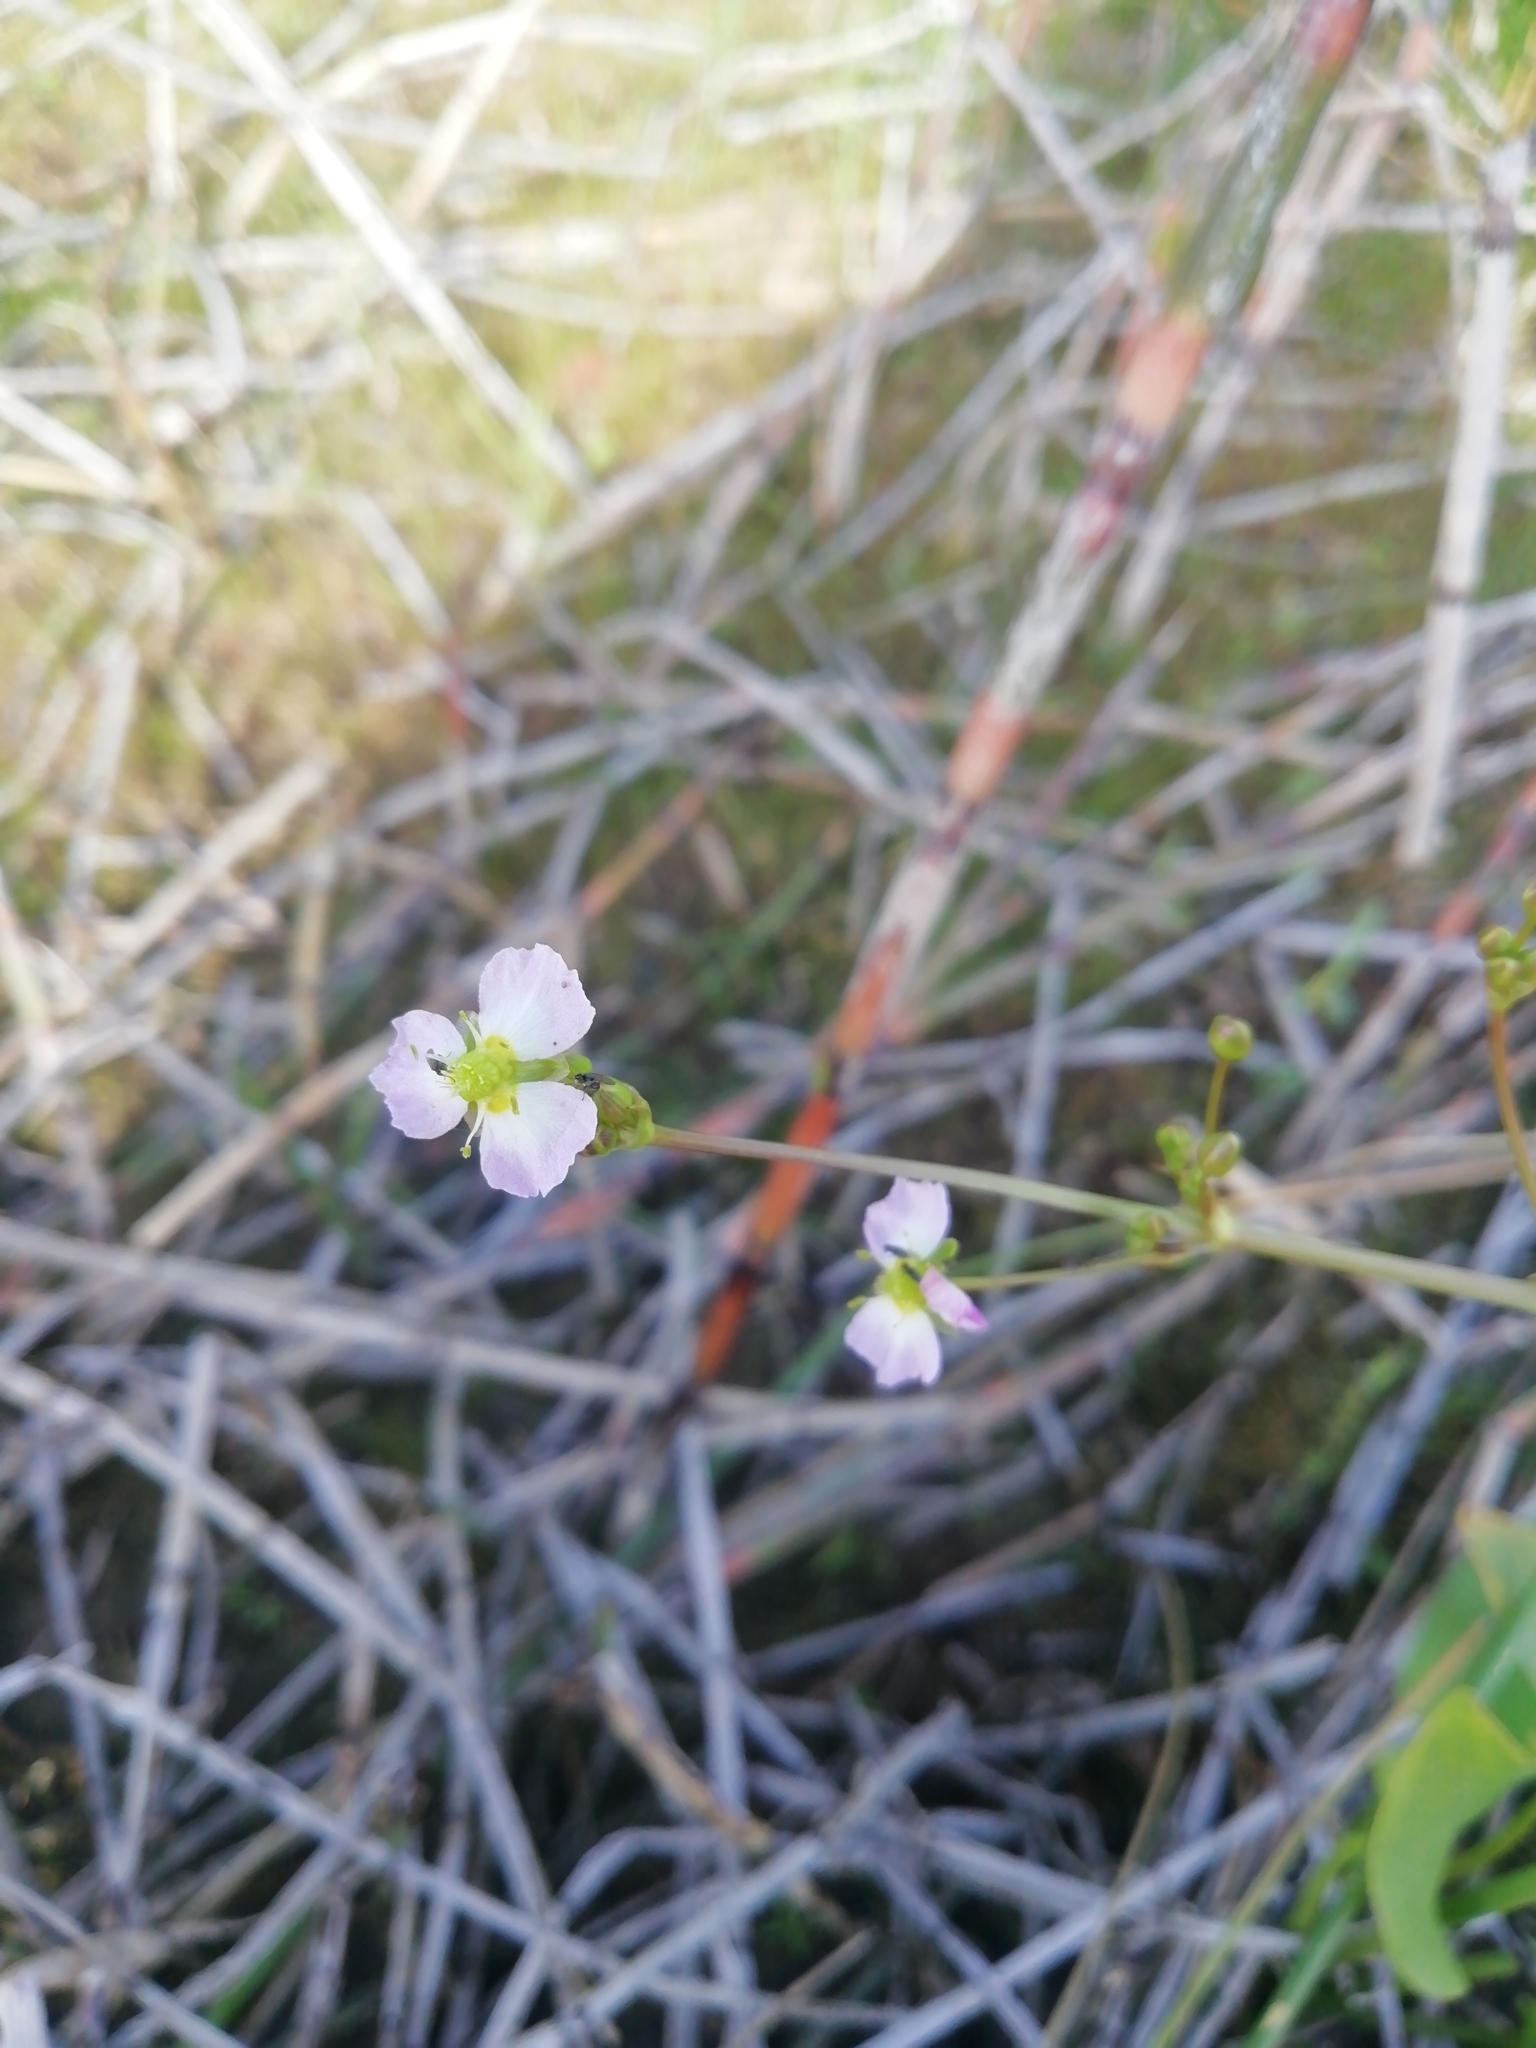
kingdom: Plantae
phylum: Tracheophyta
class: Liliopsida
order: Alismatales
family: Alismataceae
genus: Alisma
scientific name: Alisma plantago-aquatica
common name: Water-plantain
